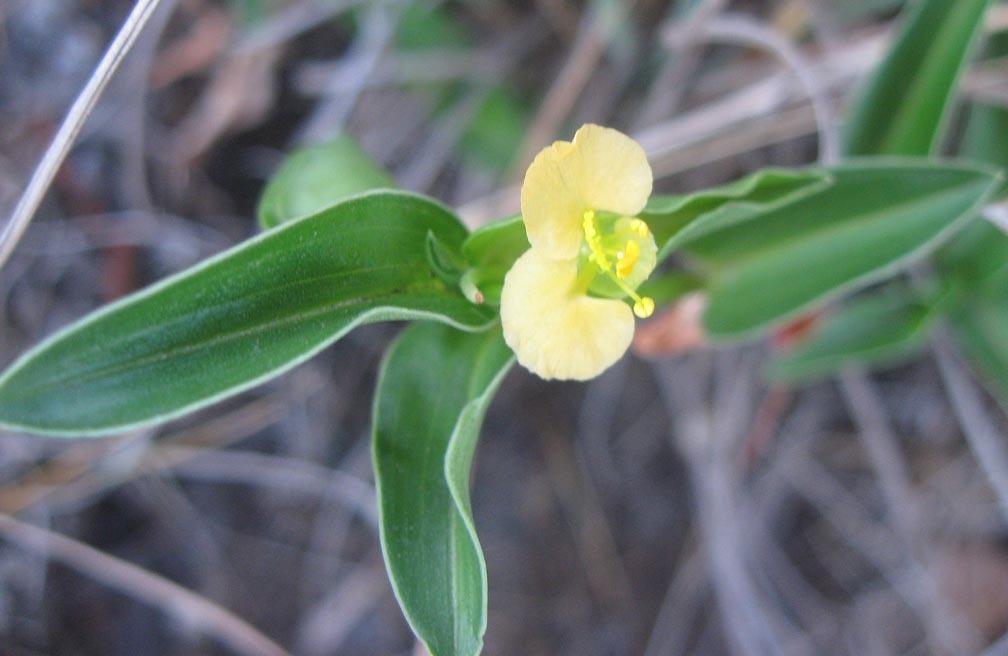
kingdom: Plantae
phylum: Tracheophyta
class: Liliopsida
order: Commelinales
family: Commelinaceae
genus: Commelina
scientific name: Commelina africana
